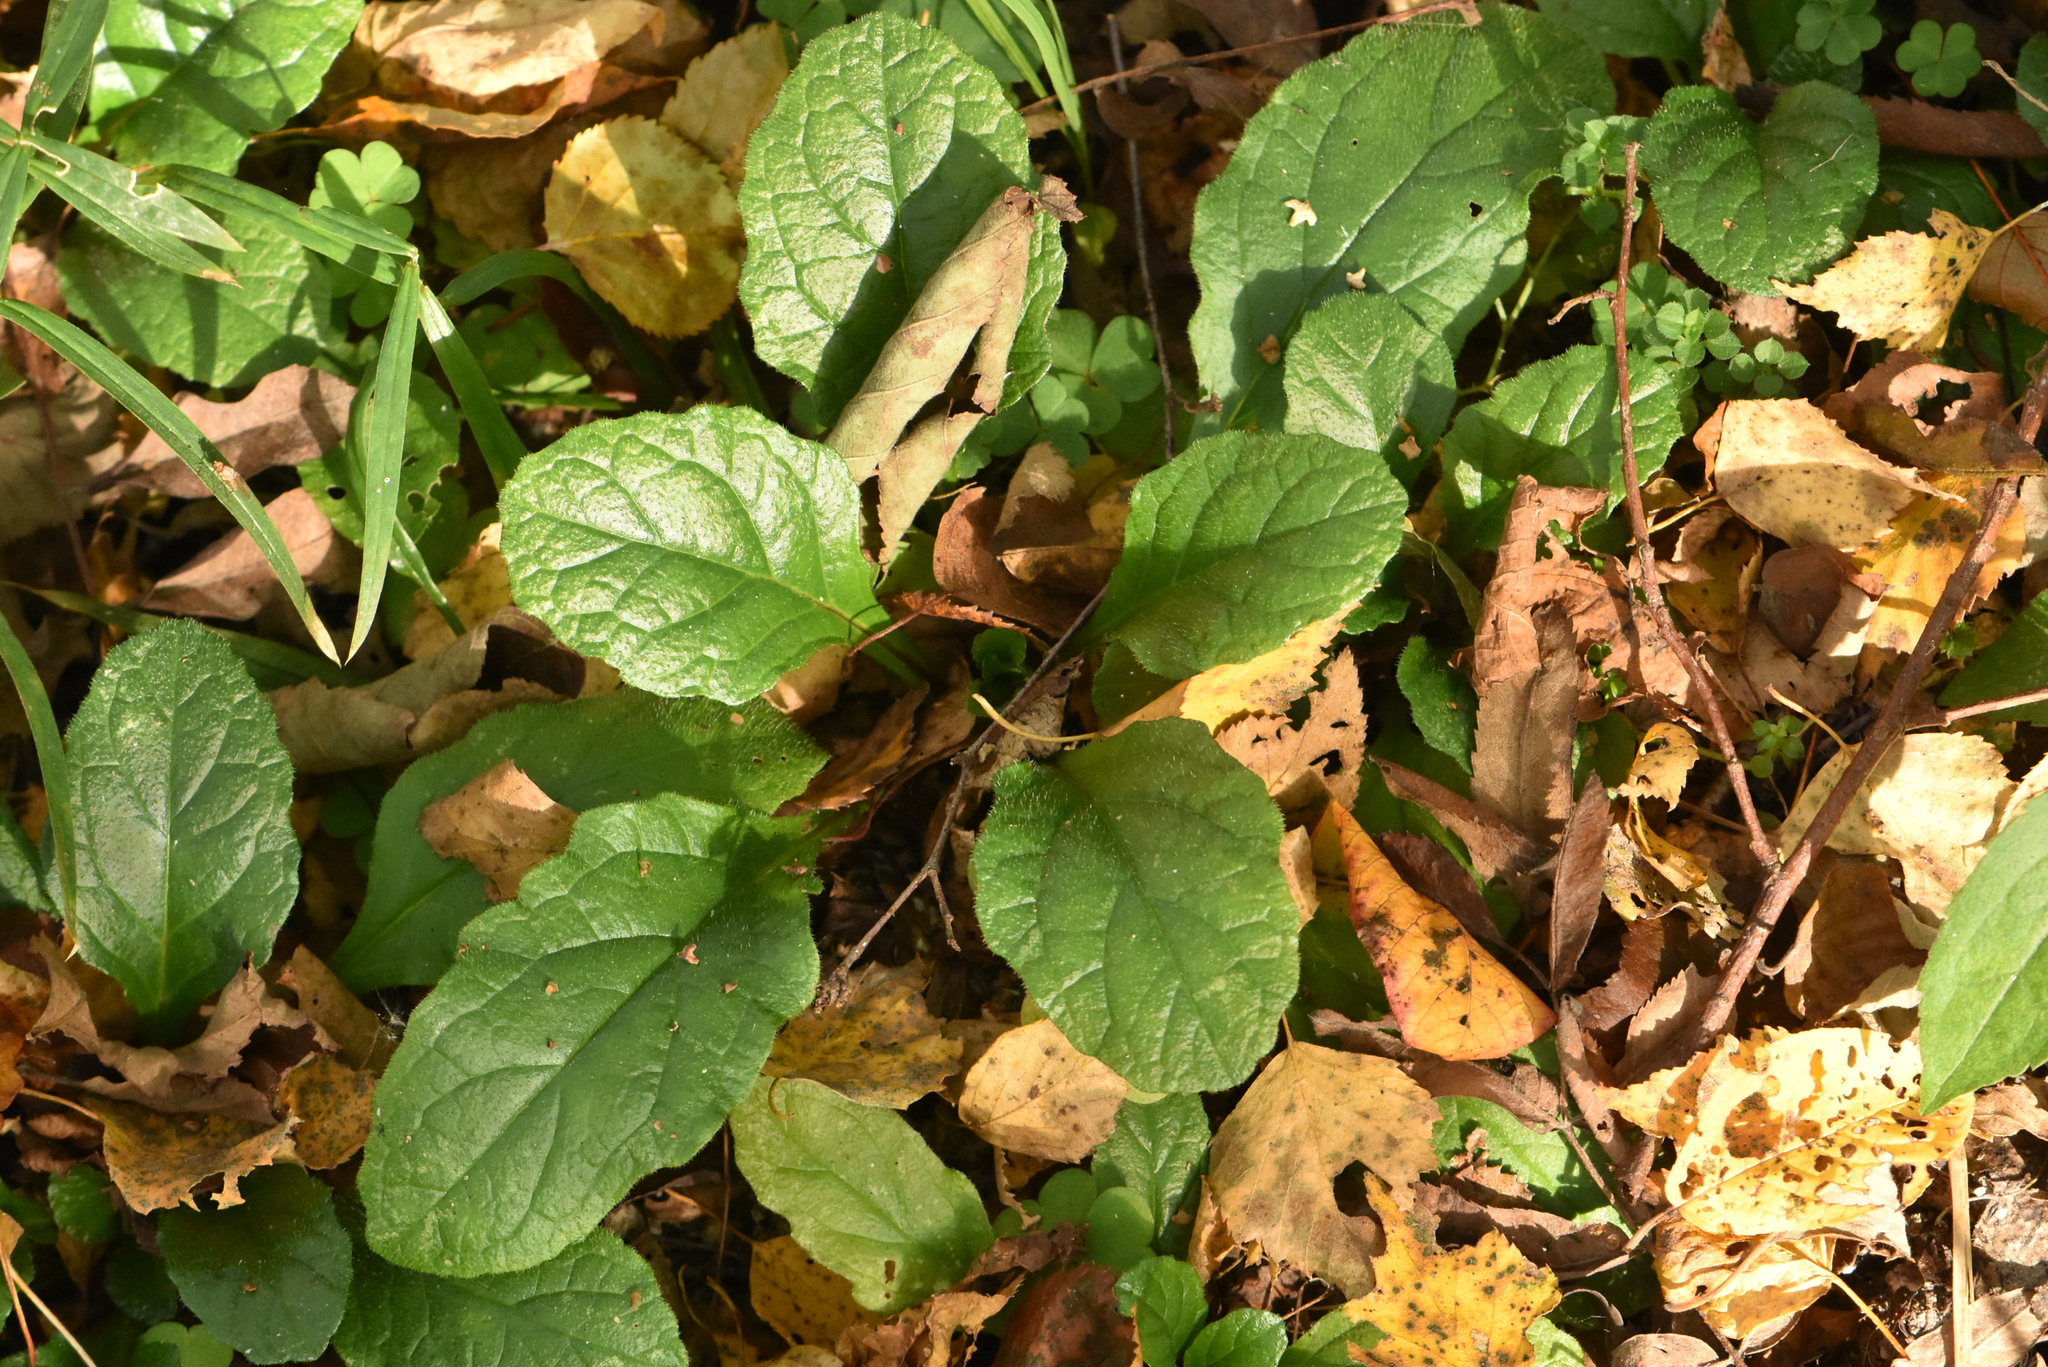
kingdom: Plantae
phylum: Tracheophyta
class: Magnoliopsida
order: Lamiales
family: Lamiaceae
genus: Ajuga
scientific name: Ajuga reptans
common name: Bugle
